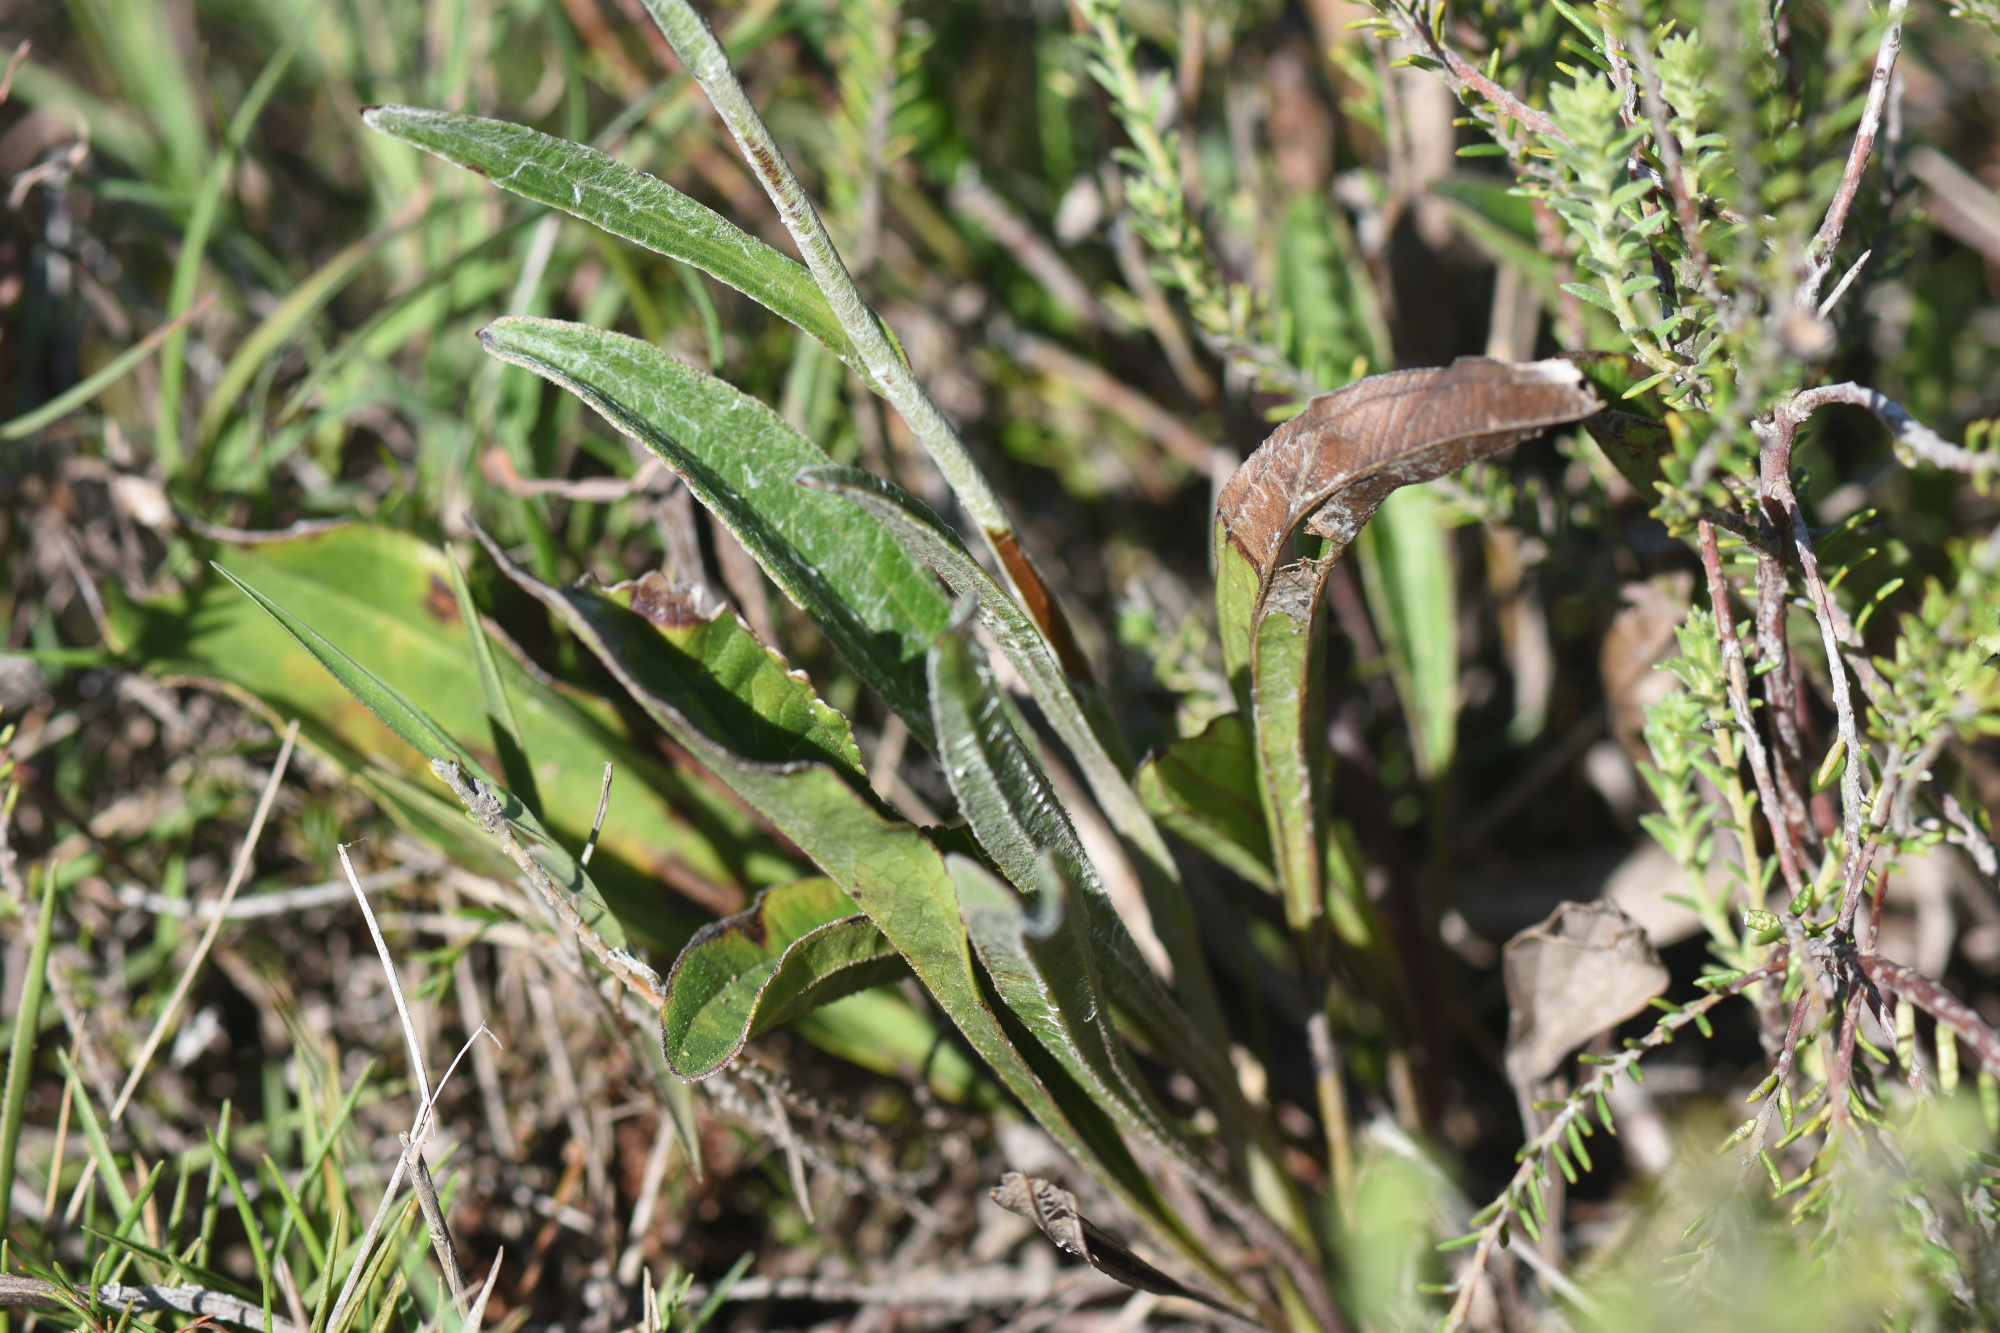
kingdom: Plantae
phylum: Tracheophyta
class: Magnoliopsida
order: Asterales
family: Asteraceae
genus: Helichrysum
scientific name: Helichrysum nudifolium
